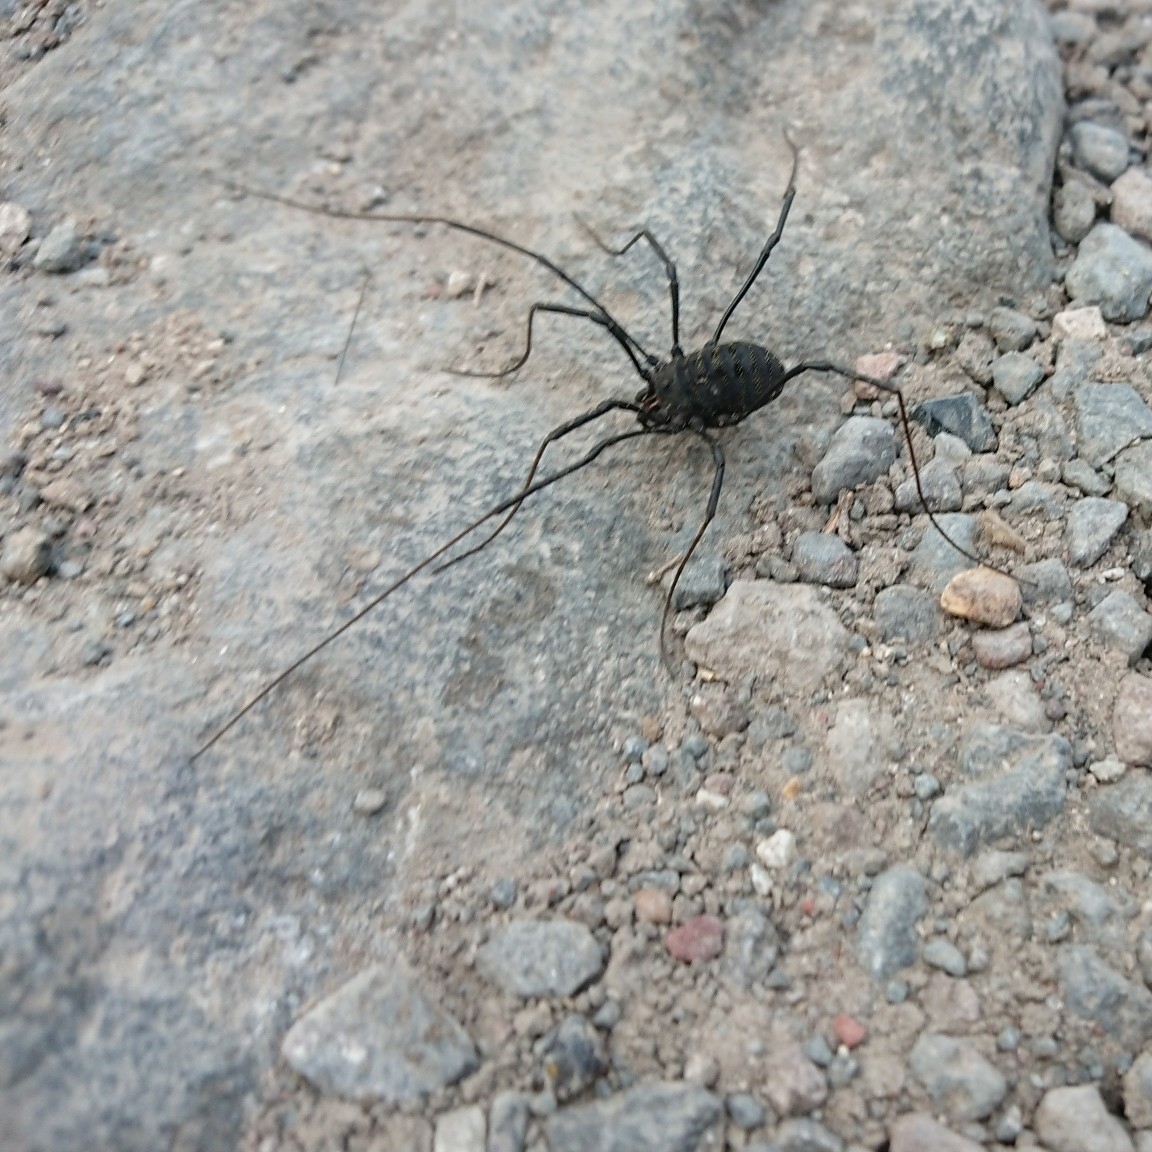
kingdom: Animalia
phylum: Arthropoda
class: Arachnida
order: Opiliones
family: Globipedidae
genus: Diguetinus
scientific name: Diguetinus raptator
